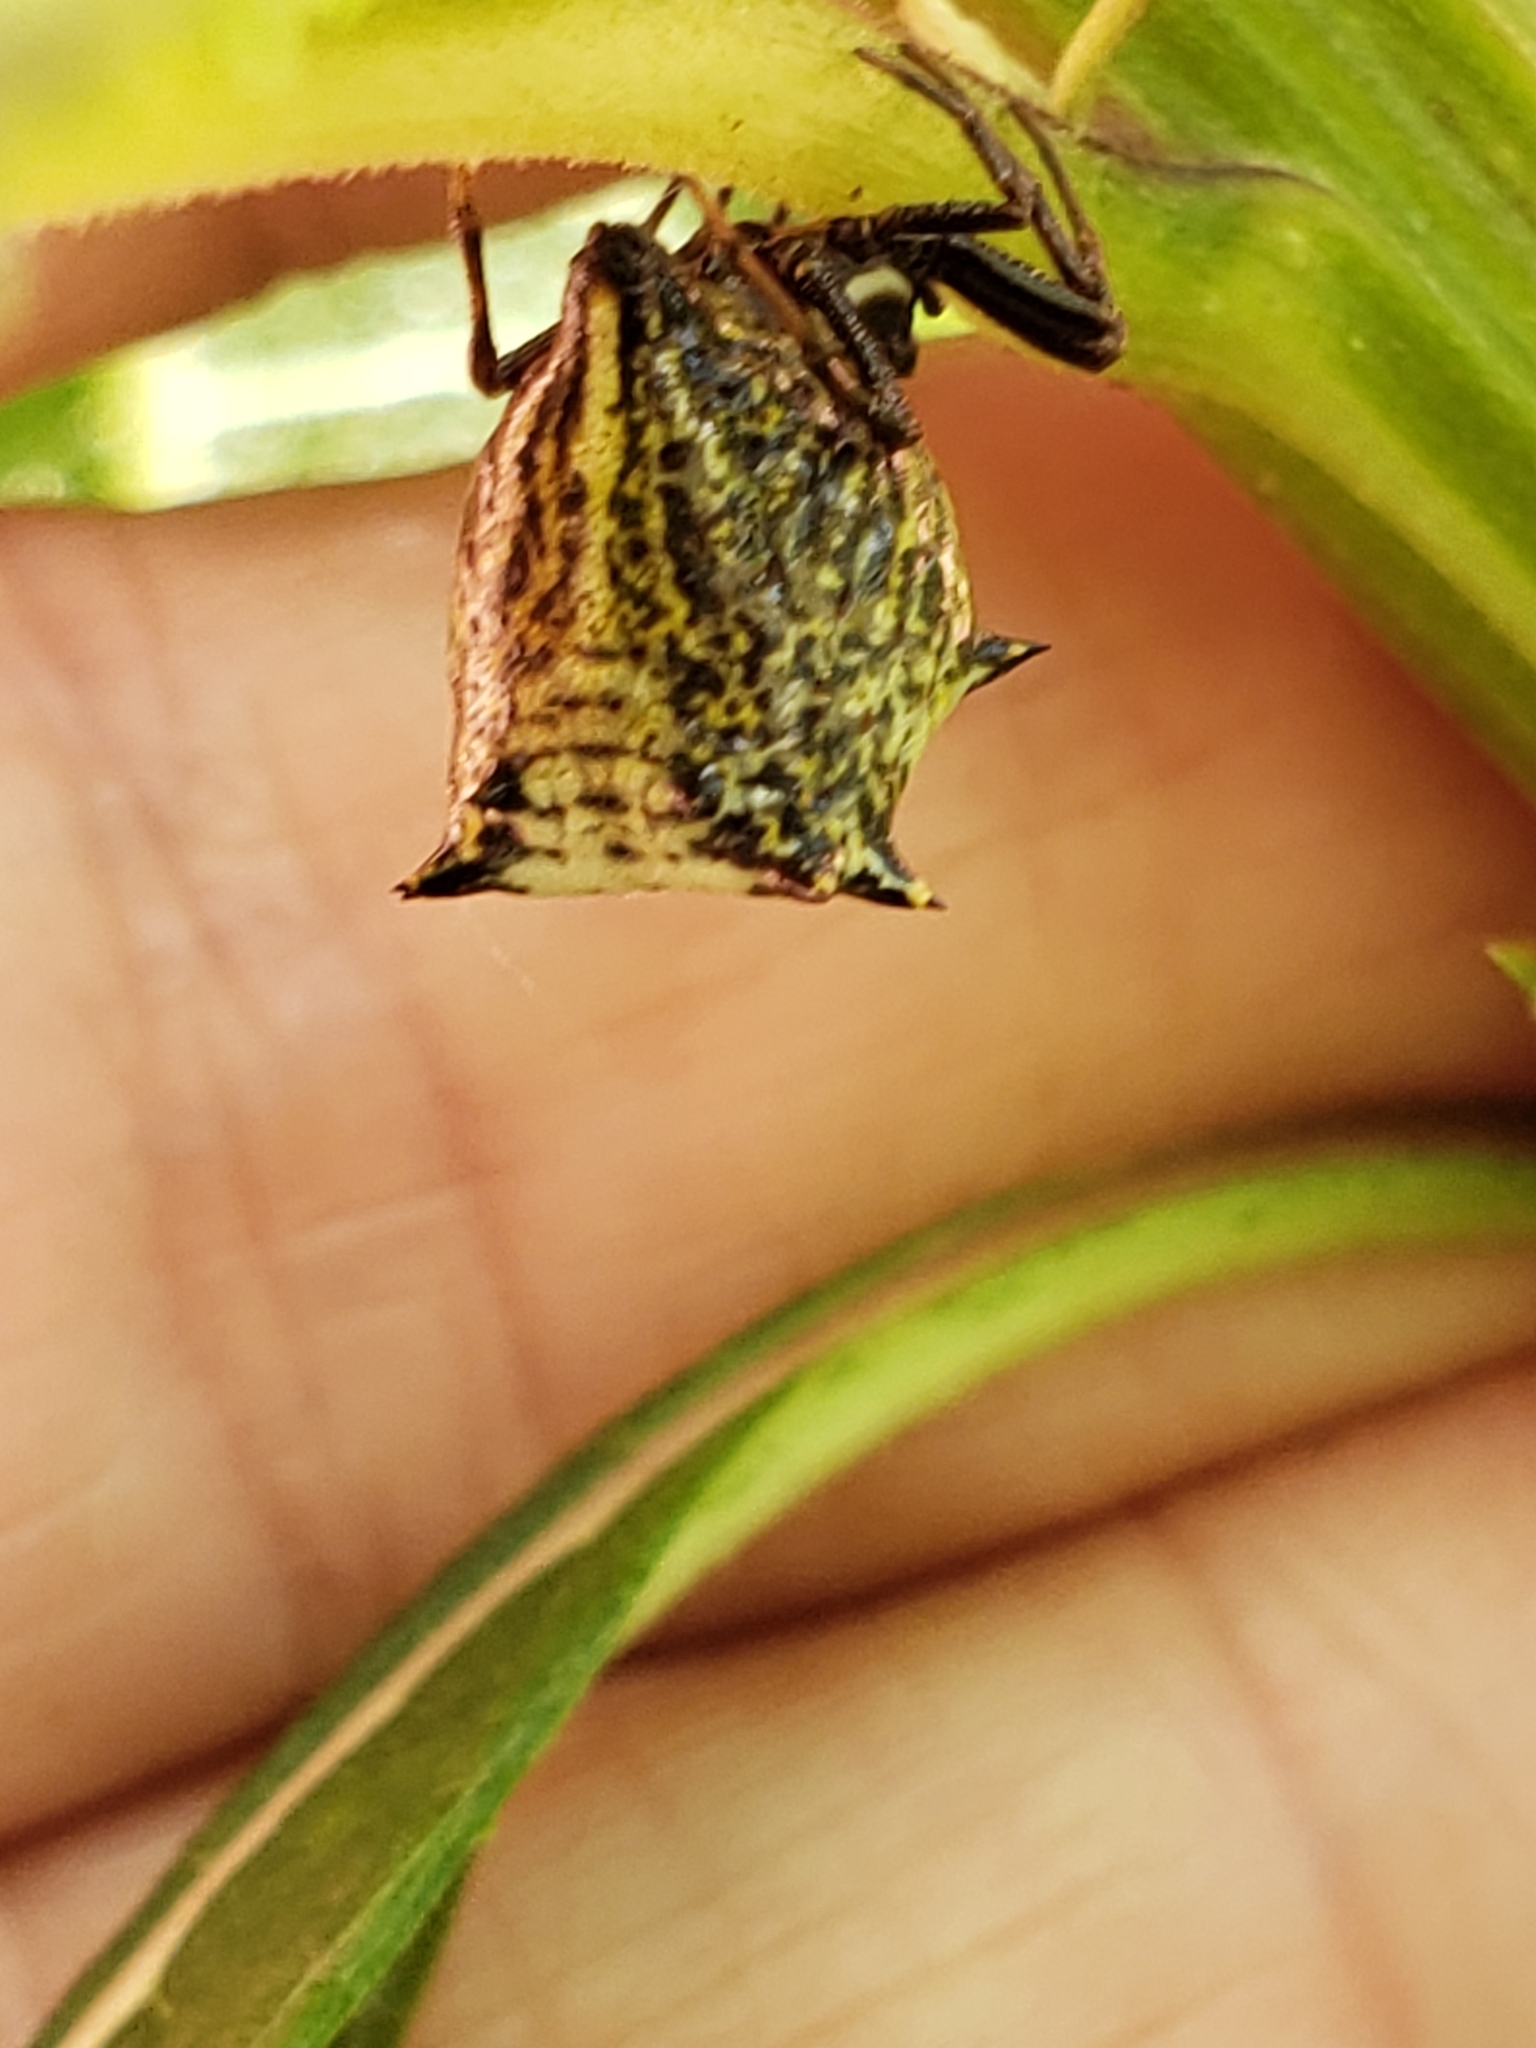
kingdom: Animalia
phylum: Arthropoda
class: Arachnida
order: Araneae
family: Araneidae
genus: Micrathena
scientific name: Micrathena gracilis
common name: Orb weavers
